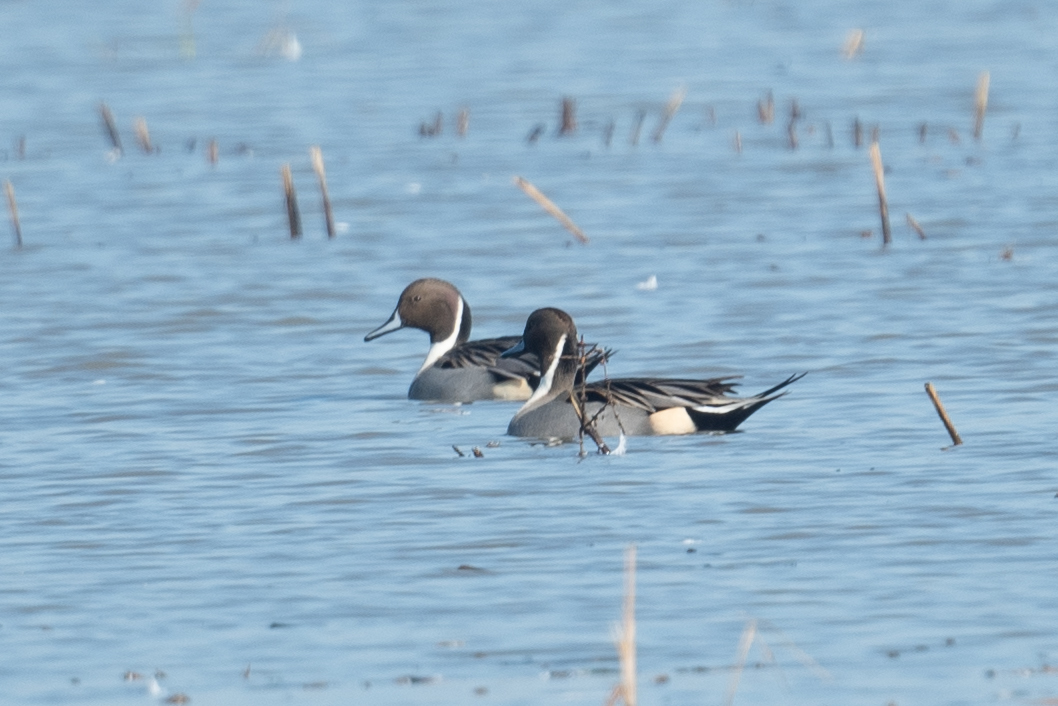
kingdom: Animalia
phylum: Chordata
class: Aves
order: Anseriformes
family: Anatidae
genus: Anas
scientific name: Anas acuta
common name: Northern pintail
